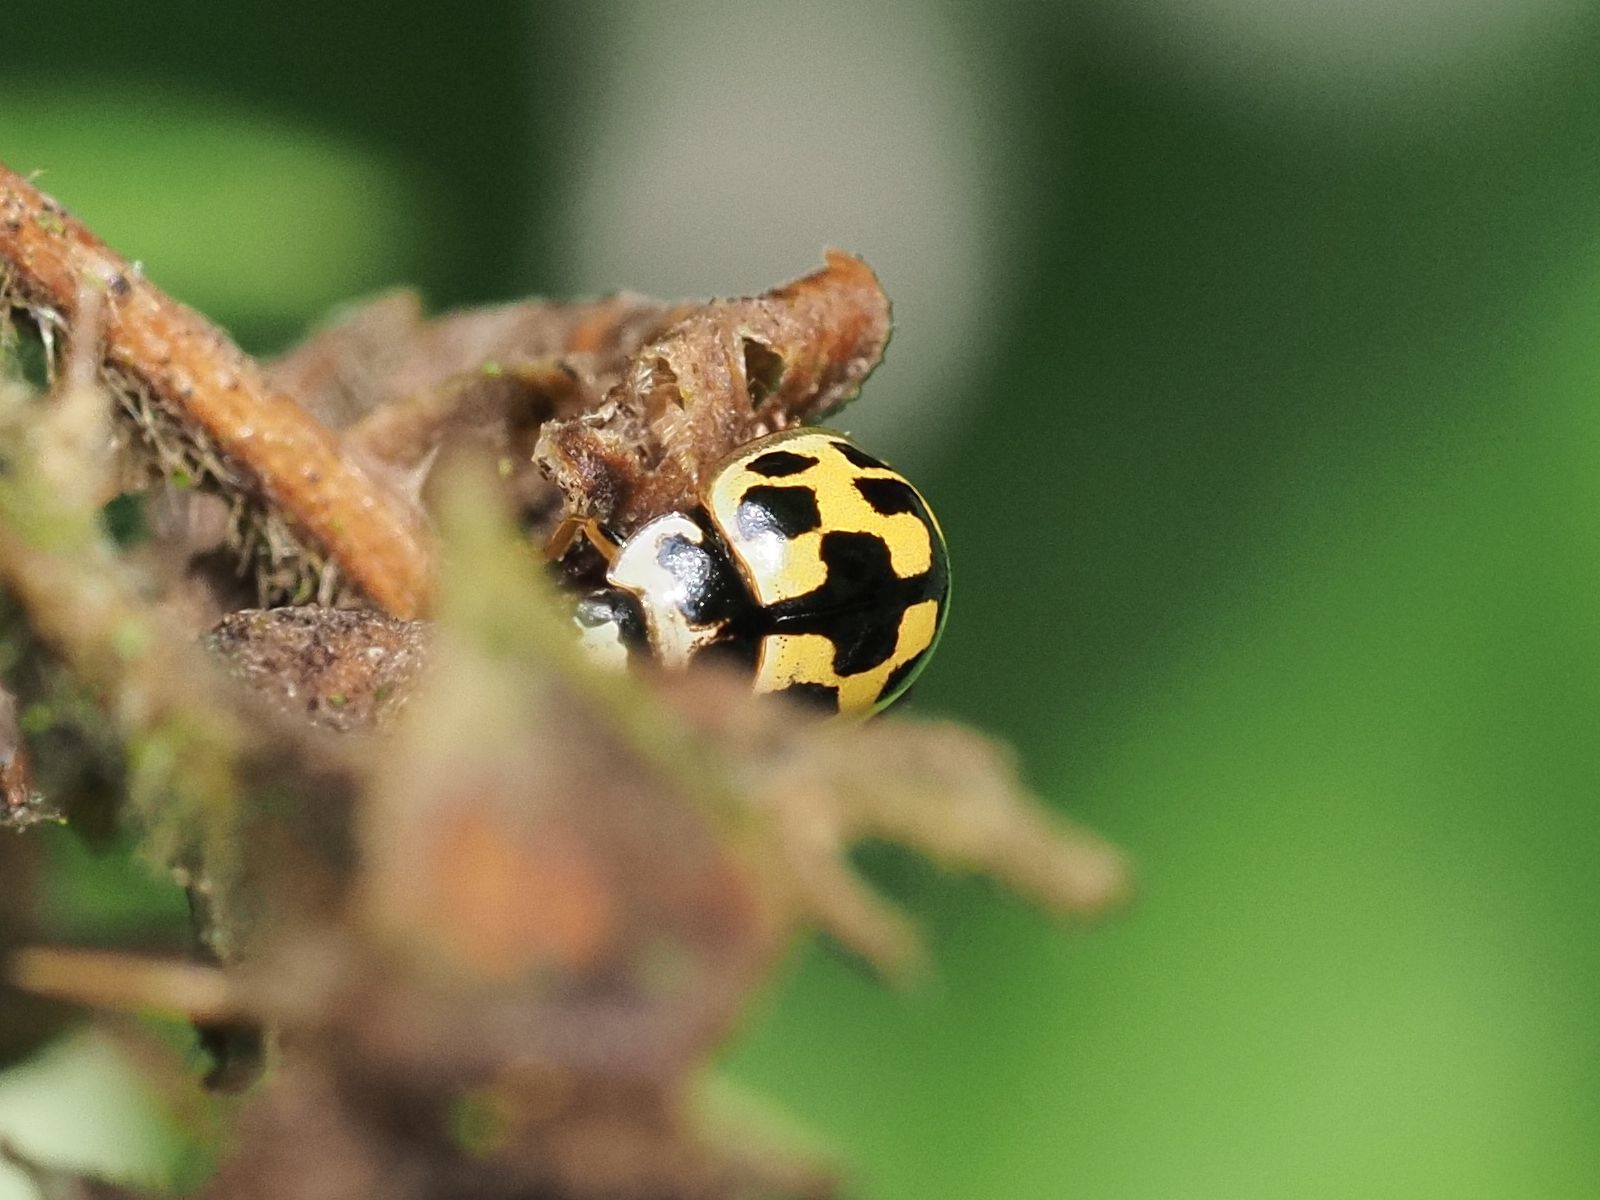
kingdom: Animalia
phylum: Arthropoda
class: Insecta
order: Coleoptera
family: Coccinellidae
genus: Propylaea
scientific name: Propylaea quatuordecimpunctata
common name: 14-spotted ladybird beetle
